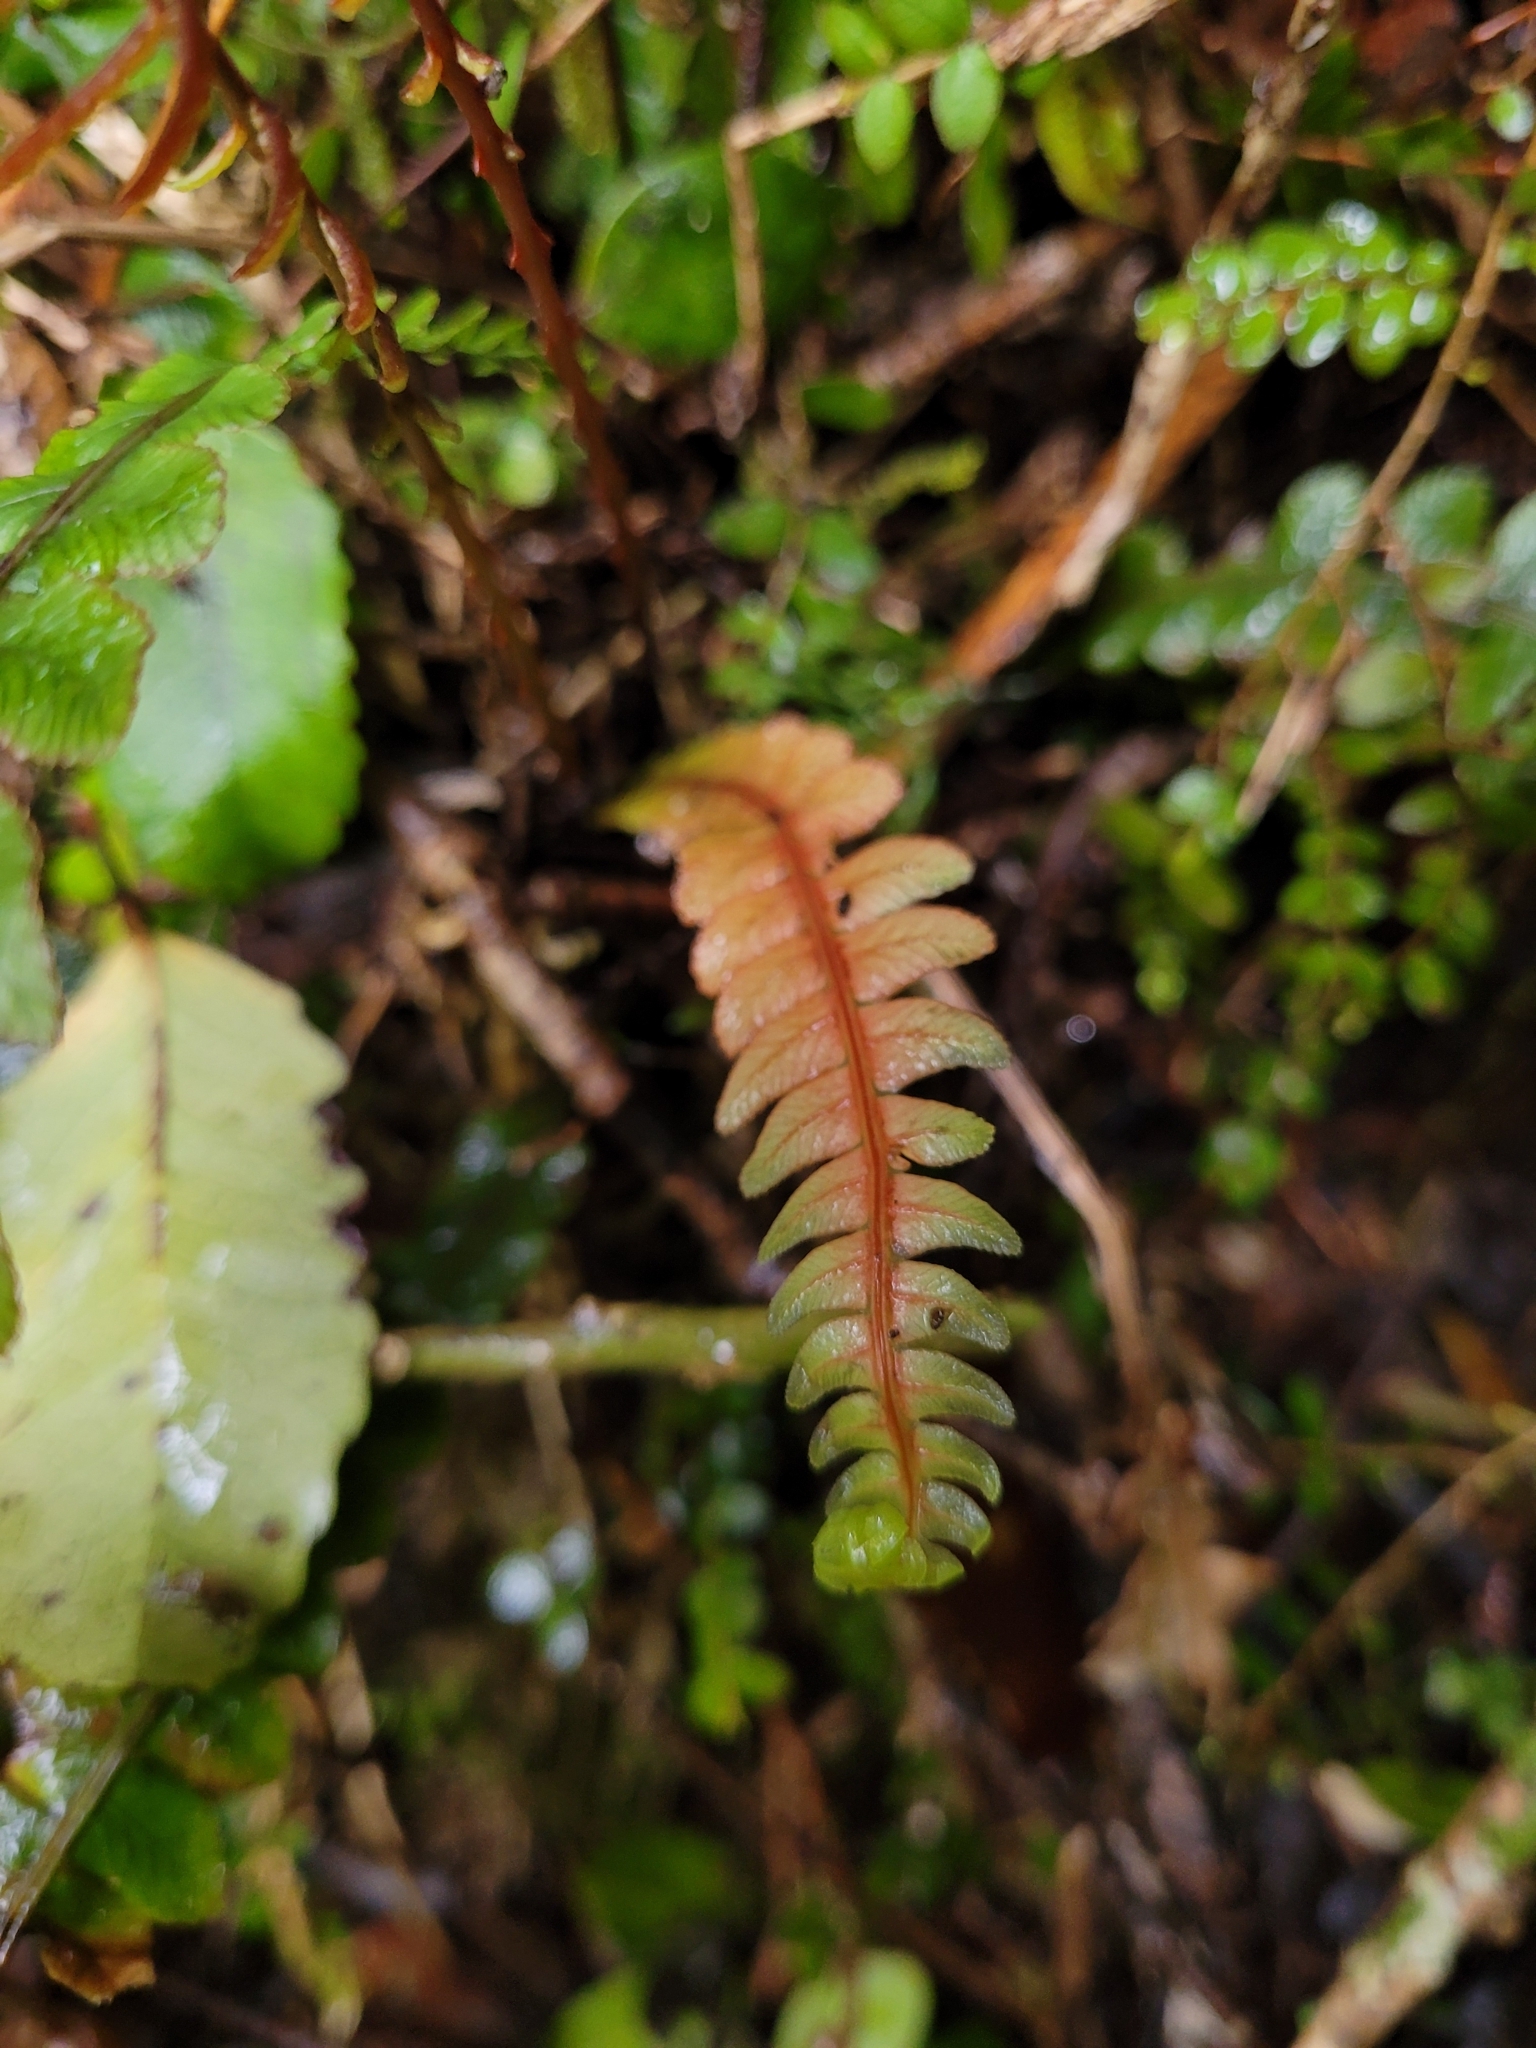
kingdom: Plantae
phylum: Tracheophyta
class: Polypodiopsida
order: Polypodiales
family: Blechnaceae
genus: Austroblechnum
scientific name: Austroblechnum lanceolatum
